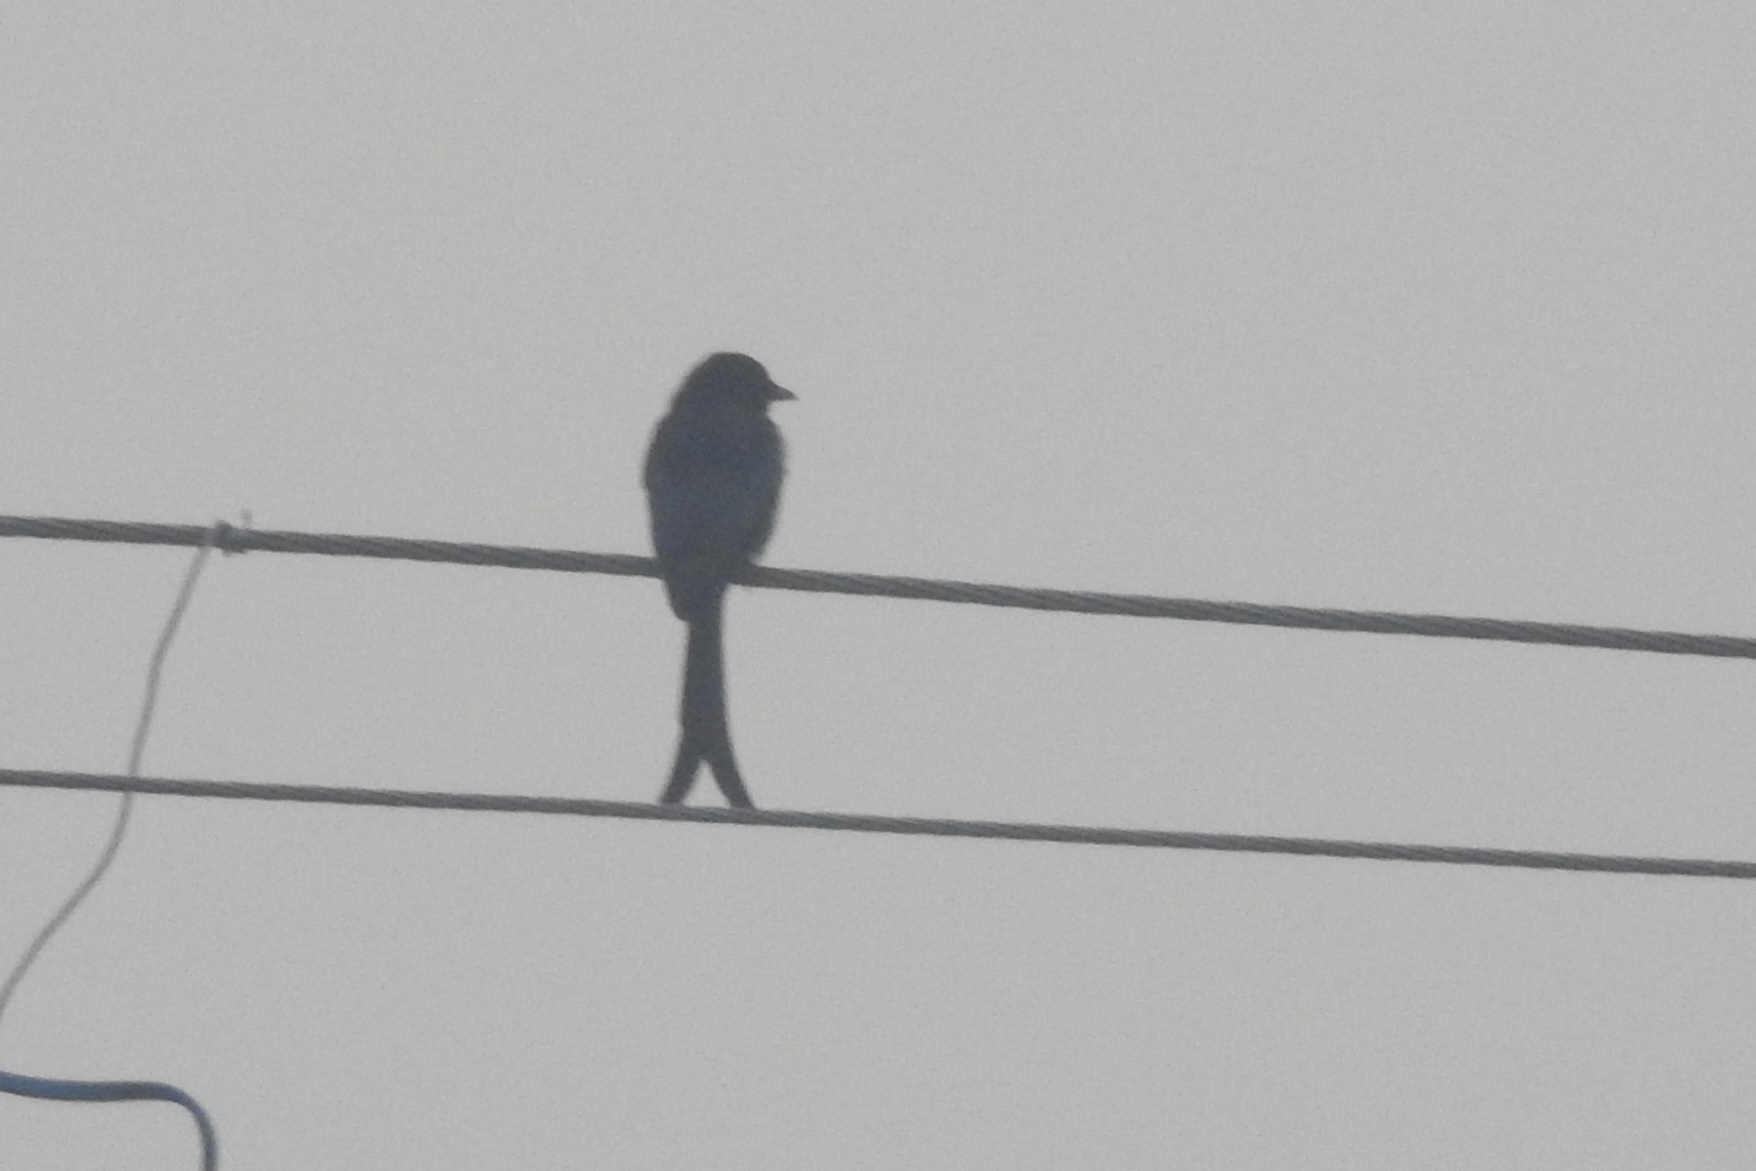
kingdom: Animalia
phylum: Chordata
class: Aves
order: Passeriformes
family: Dicruridae
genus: Dicrurus
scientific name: Dicrurus macrocercus
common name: Black drongo
